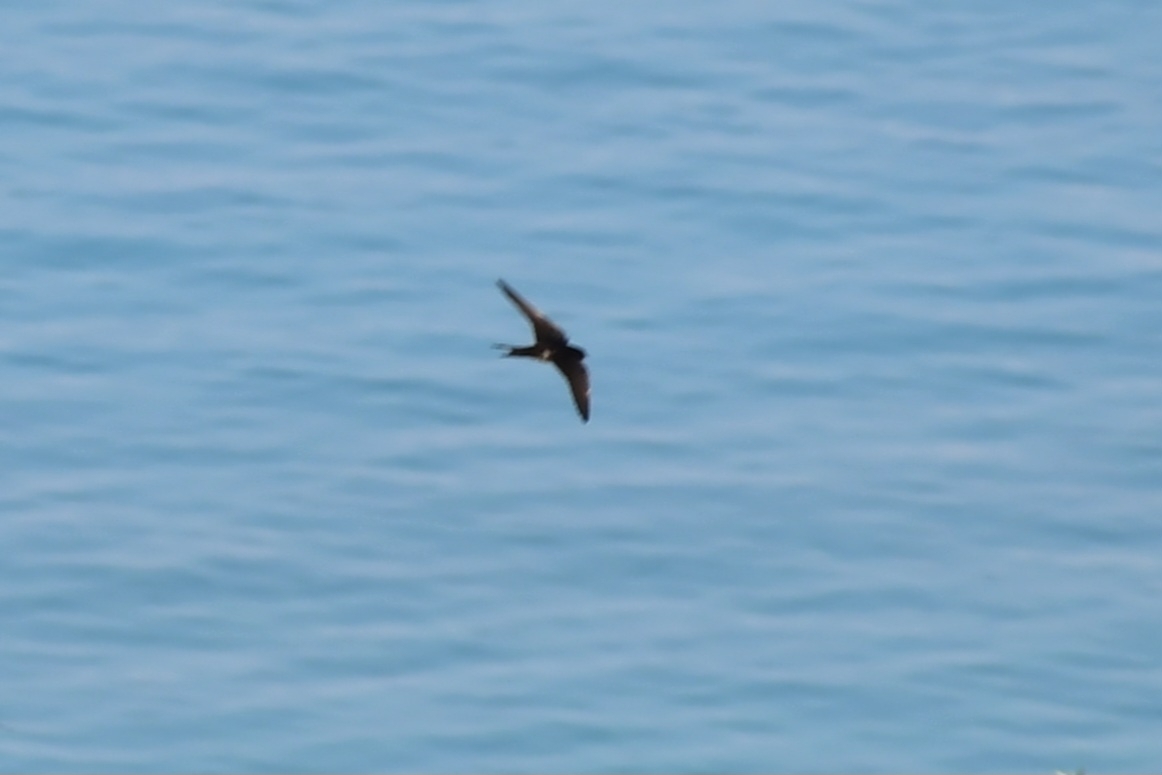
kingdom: Animalia
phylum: Chordata
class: Aves
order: Passeriformes
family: Hirundinidae
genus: Hirundo
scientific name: Hirundo rustica
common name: Barn swallow
